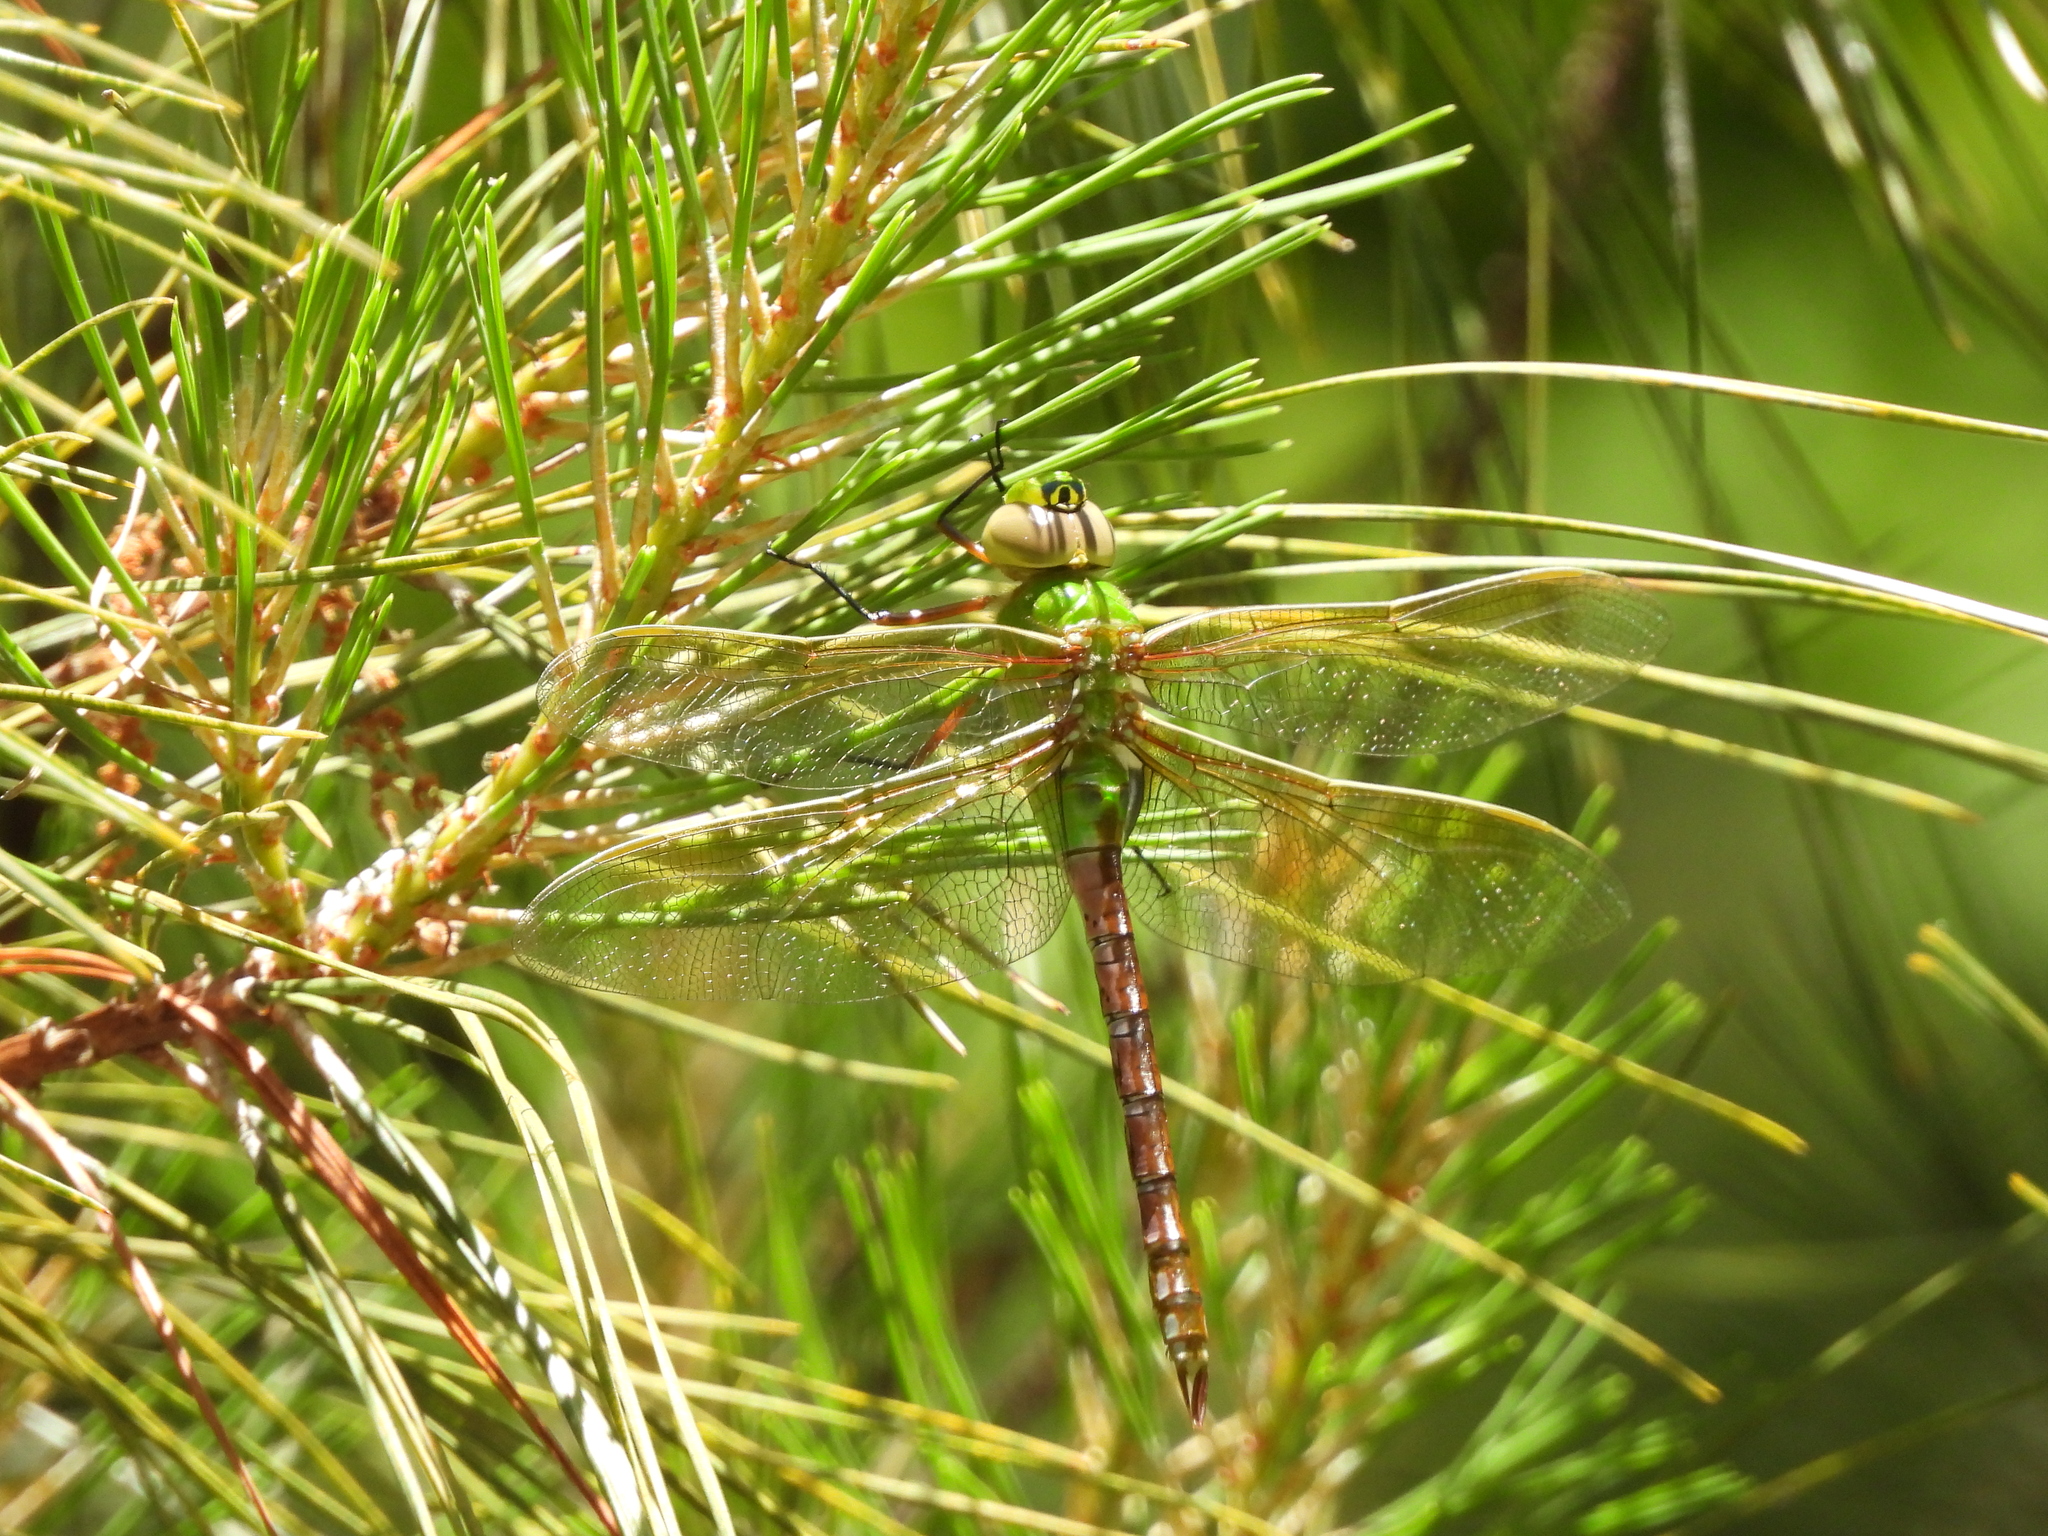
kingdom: Animalia
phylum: Arthropoda
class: Insecta
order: Odonata
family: Aeshnidae
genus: Anax
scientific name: Anax junius
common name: Common green darner
